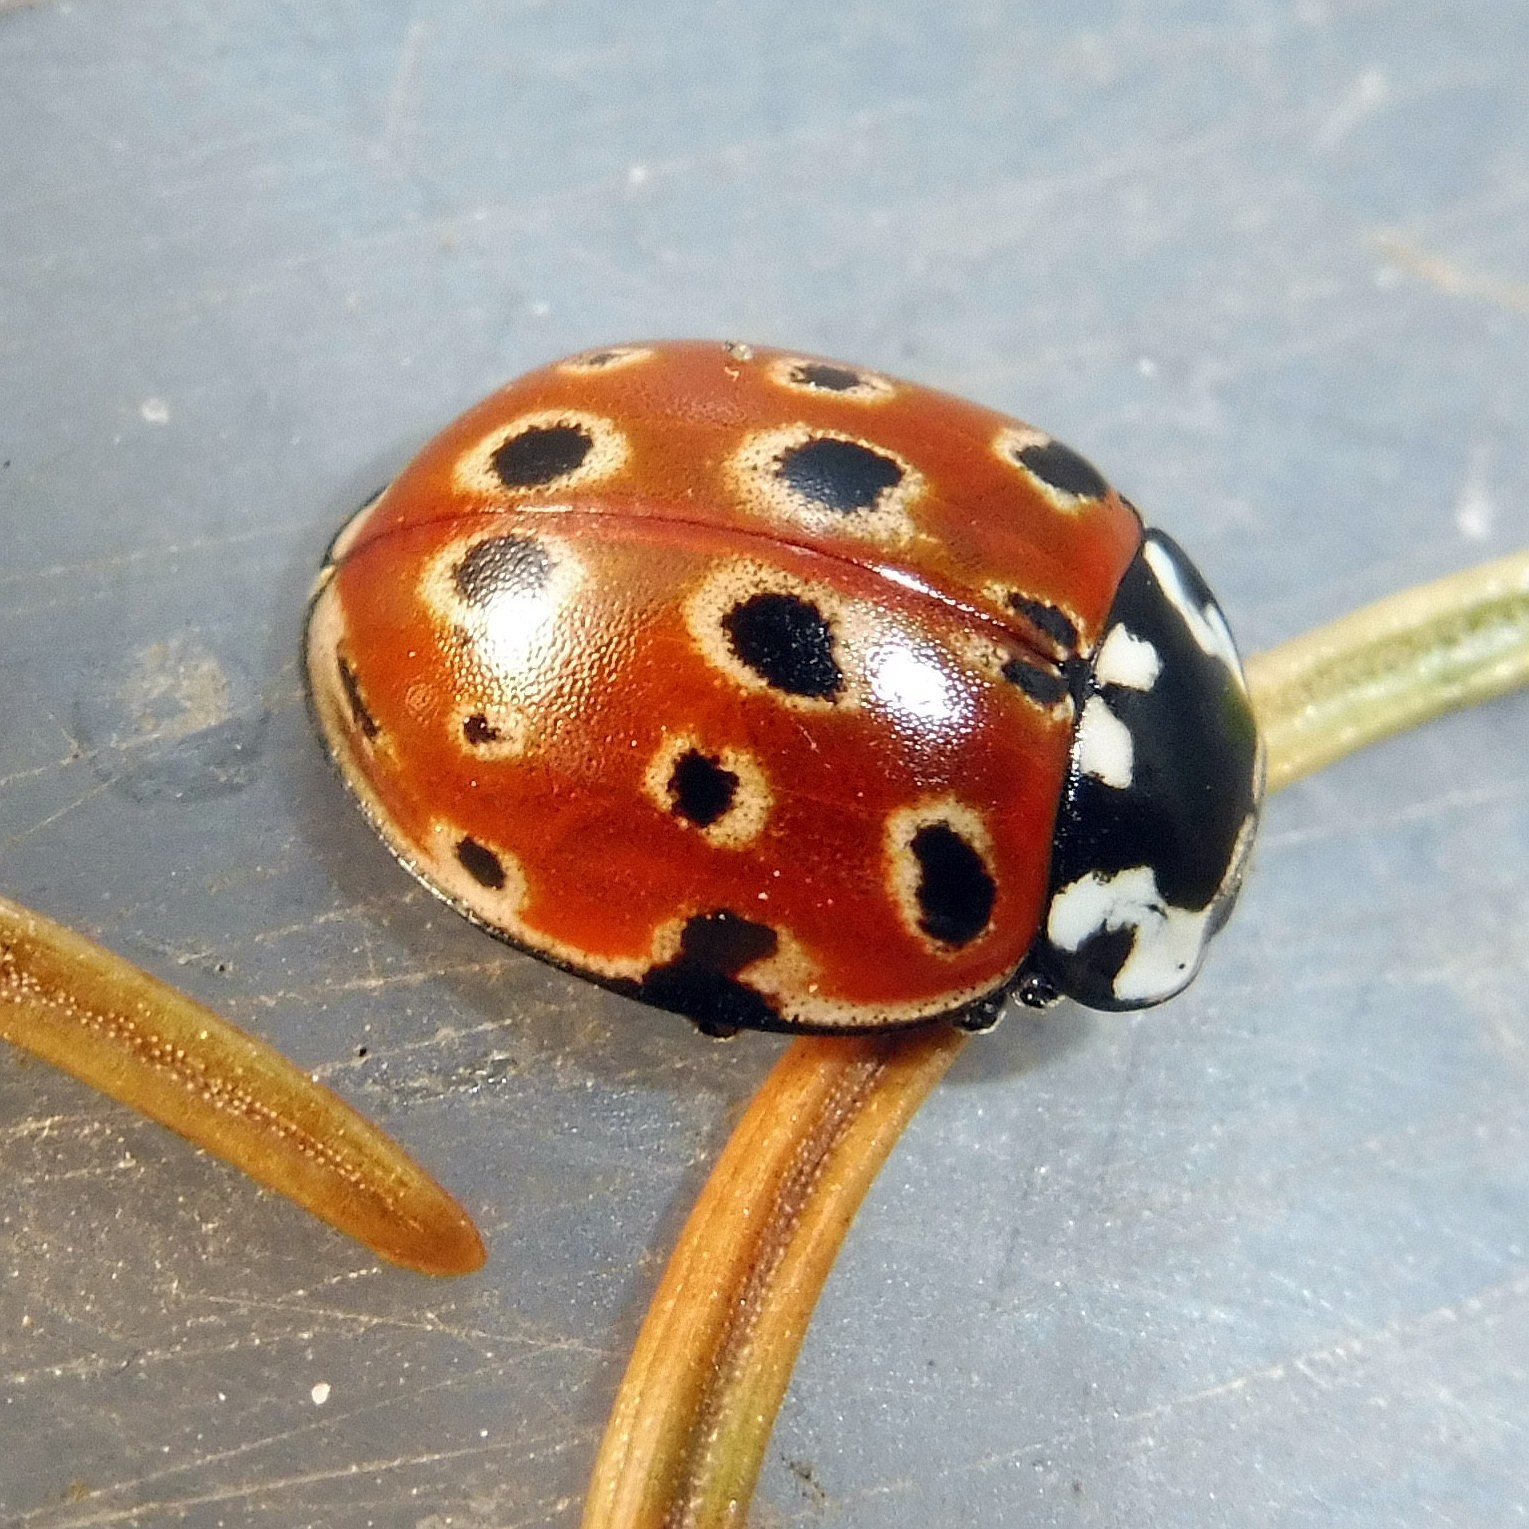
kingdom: Animalia
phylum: Arthropoda
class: Insecta
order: Coleoptera
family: Coccinellidae
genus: Anatis
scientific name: Anatis ocellata
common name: Eyed ladybird
